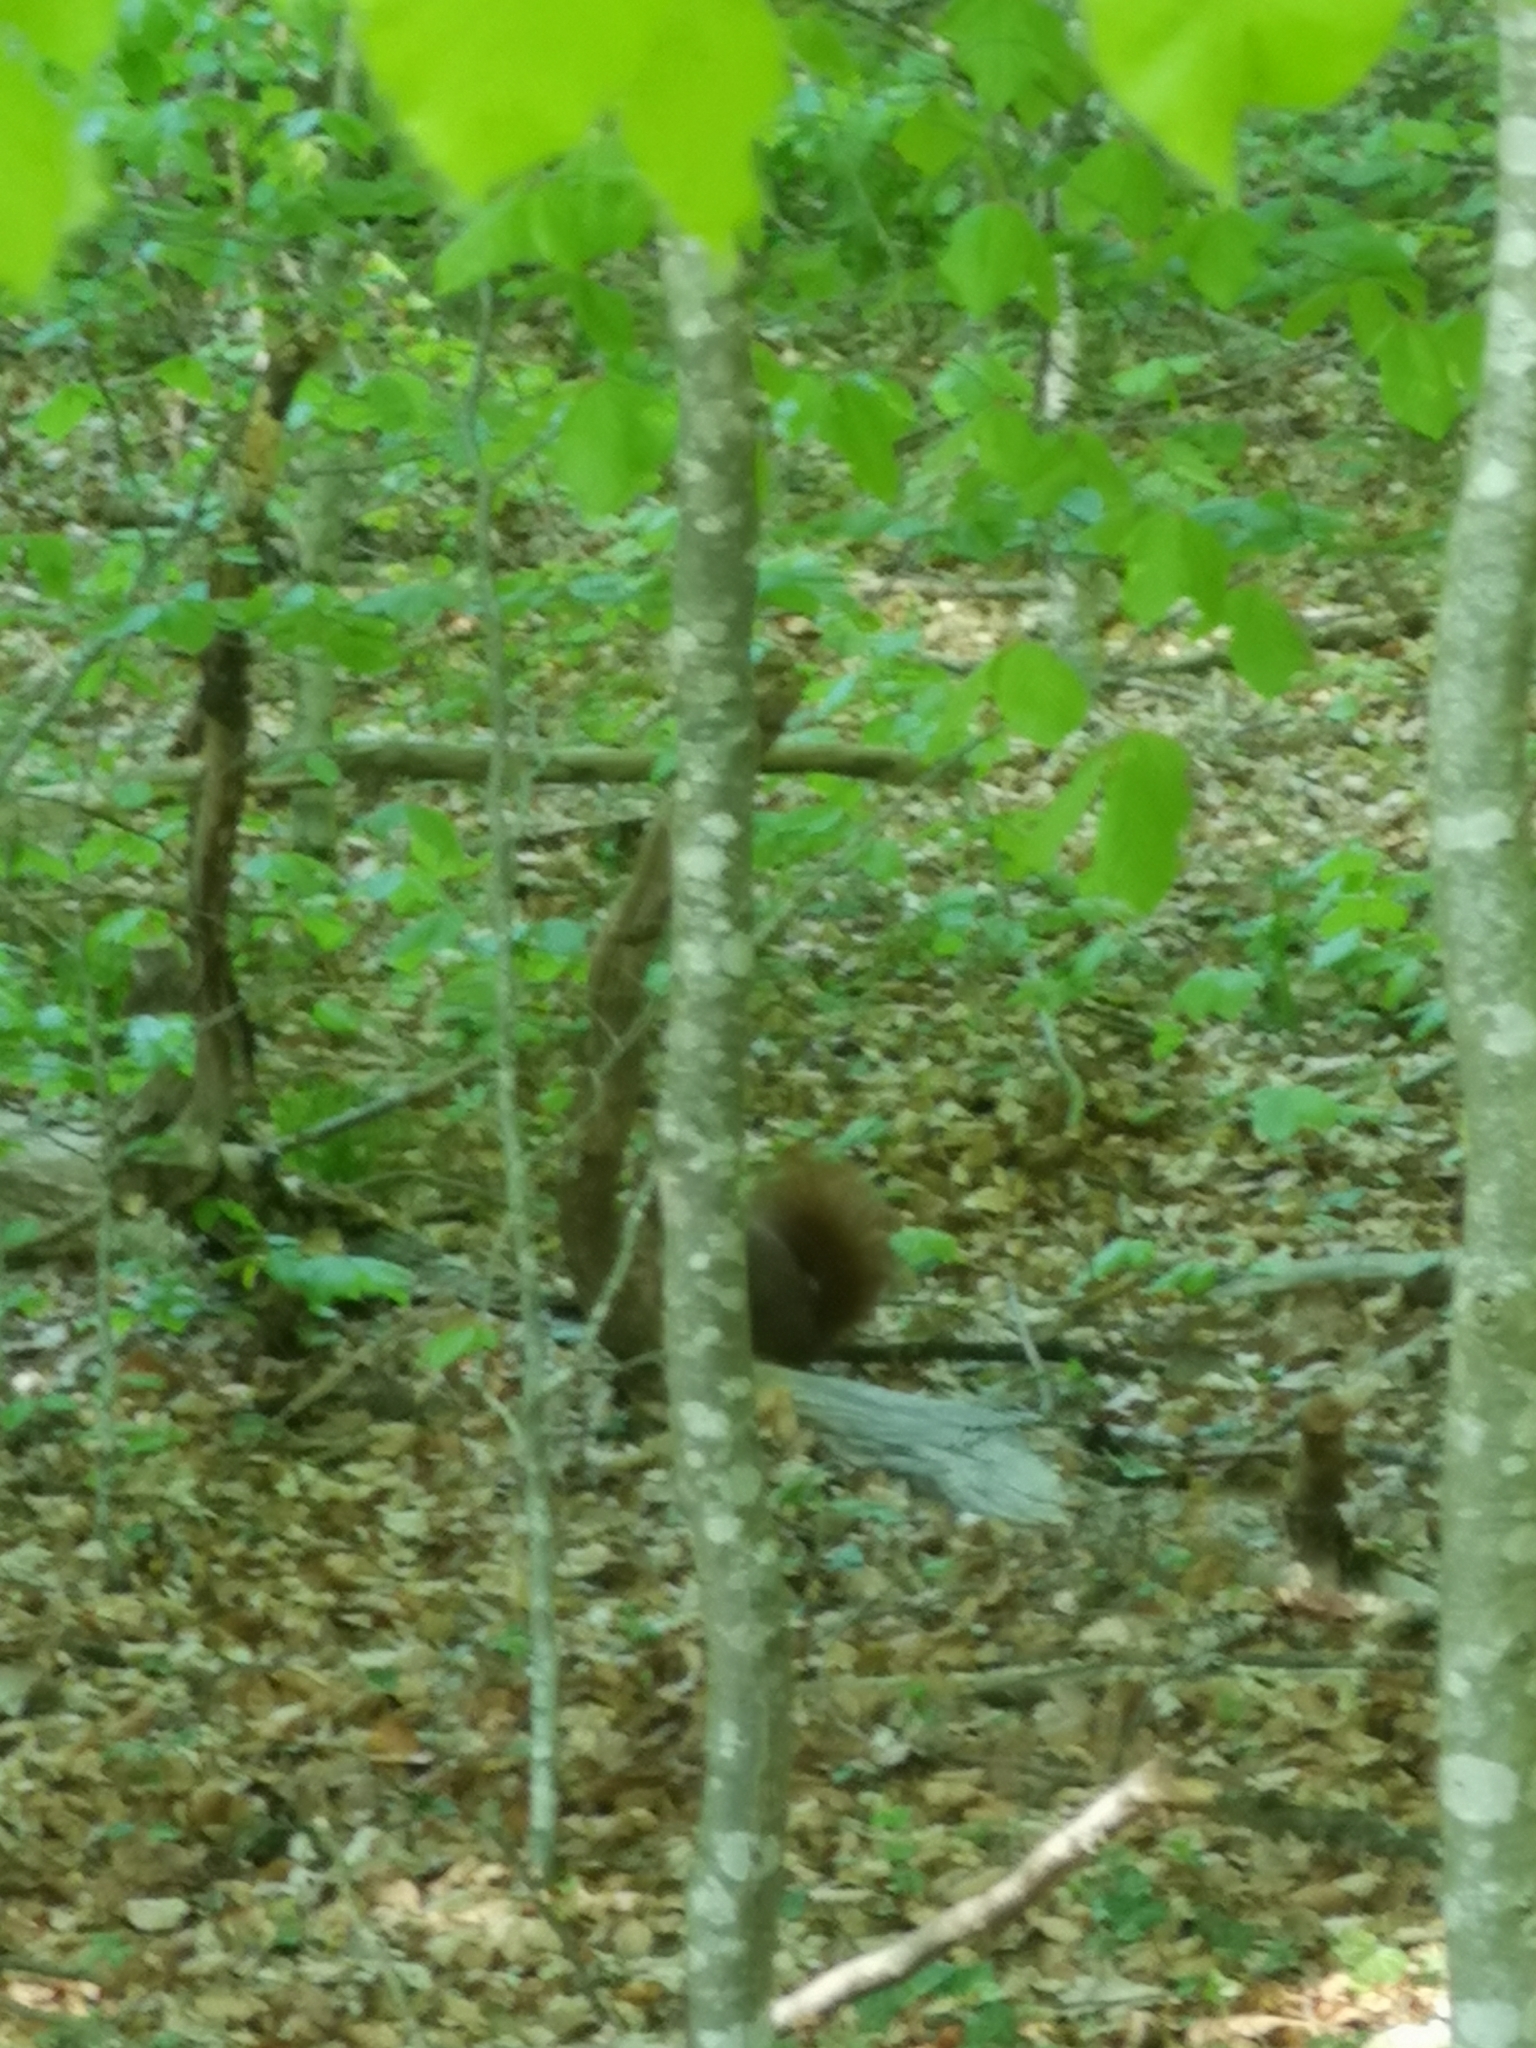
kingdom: Animalia
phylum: Chordata
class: Mammalia
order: Rodentia
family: Sciuridae
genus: Sciurus
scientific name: Sciurus vulgaris
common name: Eurasian red squirrel
